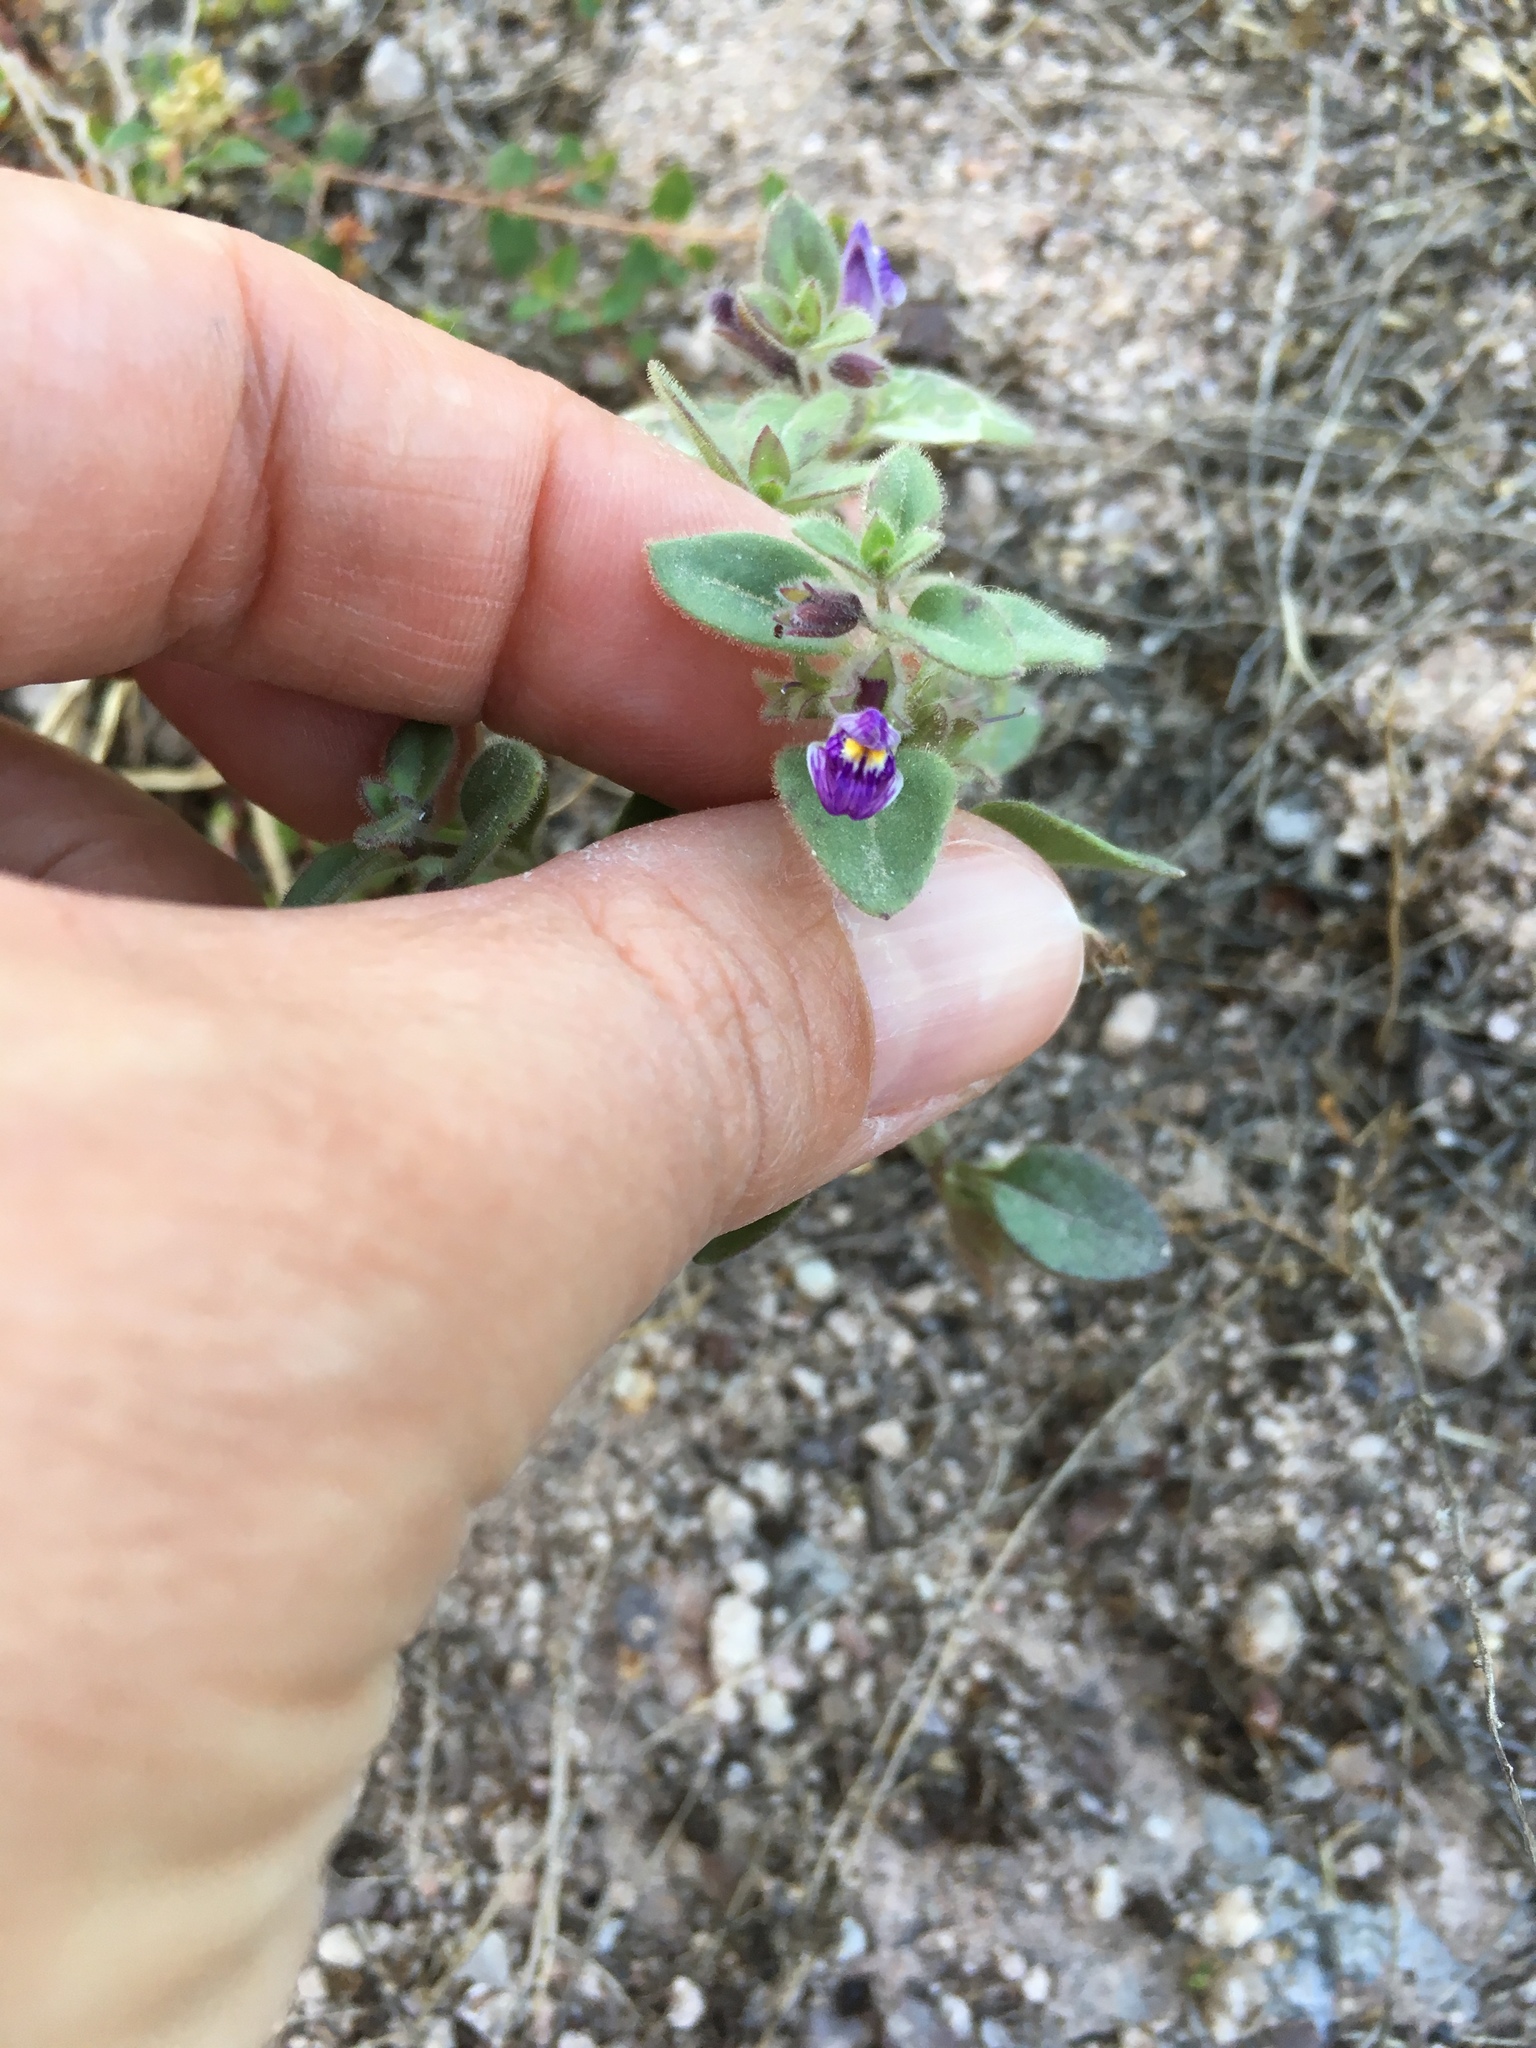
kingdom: Plantae
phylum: Tracheophyta
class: Magnoliopsida
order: Lamiales
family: Plantaginaceae
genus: Pseudorontium
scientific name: Pseudorontium cyathiferum
